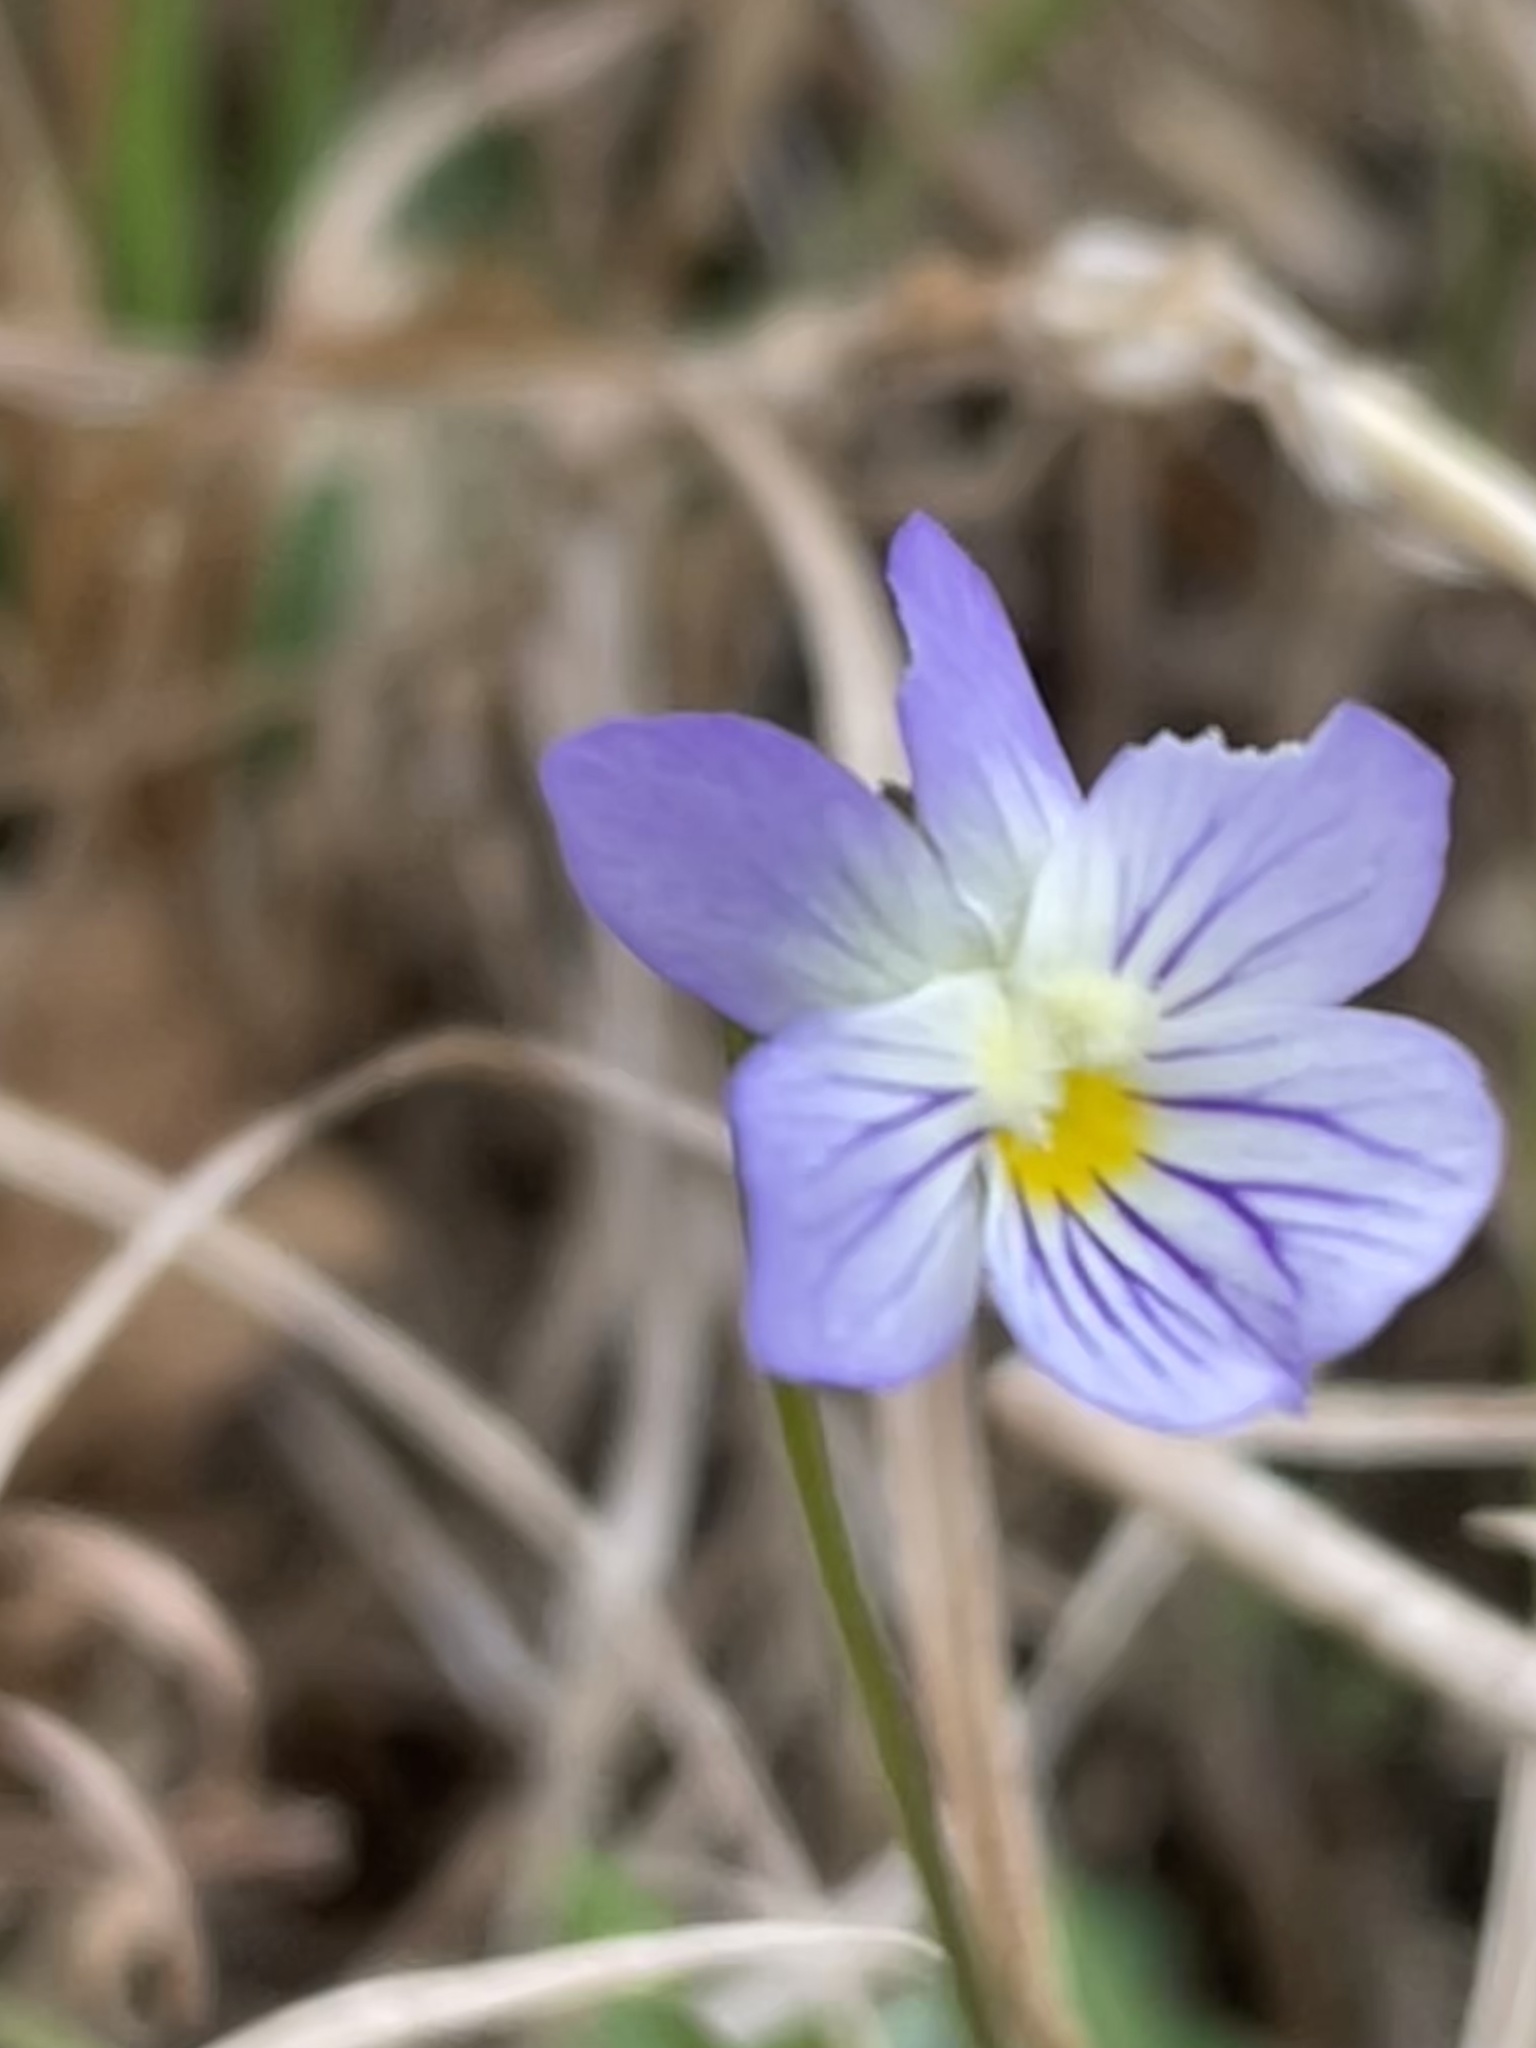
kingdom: Plantae
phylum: Tracheophyta
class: Magnoliopsida
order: Malpighiales
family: Violaceae
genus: Viola
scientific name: Viola rafinesquei
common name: American field pansy
